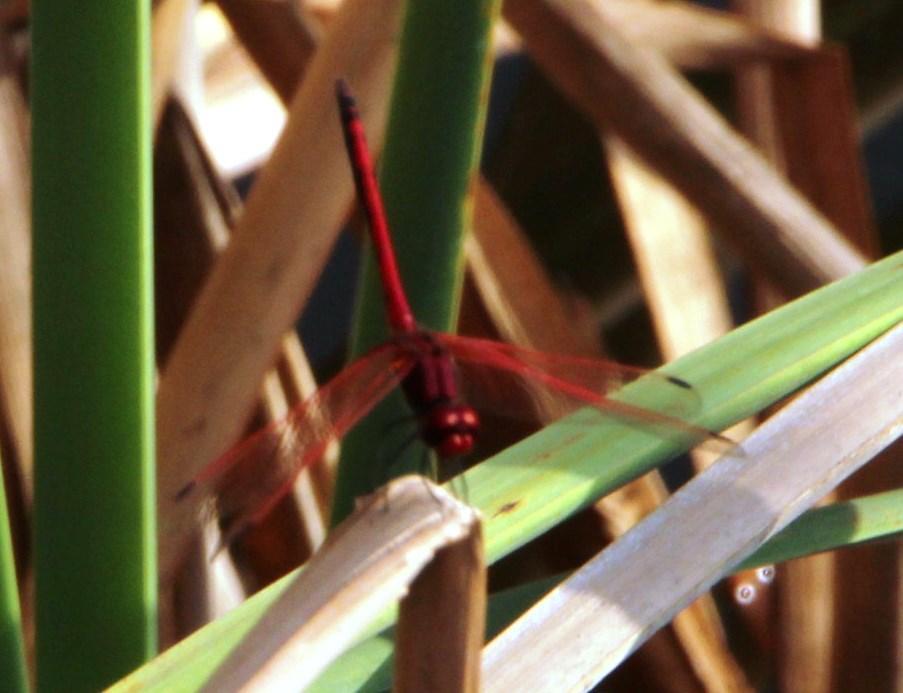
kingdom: Animalia
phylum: Arthropoda
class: Insecta
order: Odonata
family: Libellulidae
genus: Trithemis
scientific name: Trithemis arteriosa
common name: Red-veined dropwing
